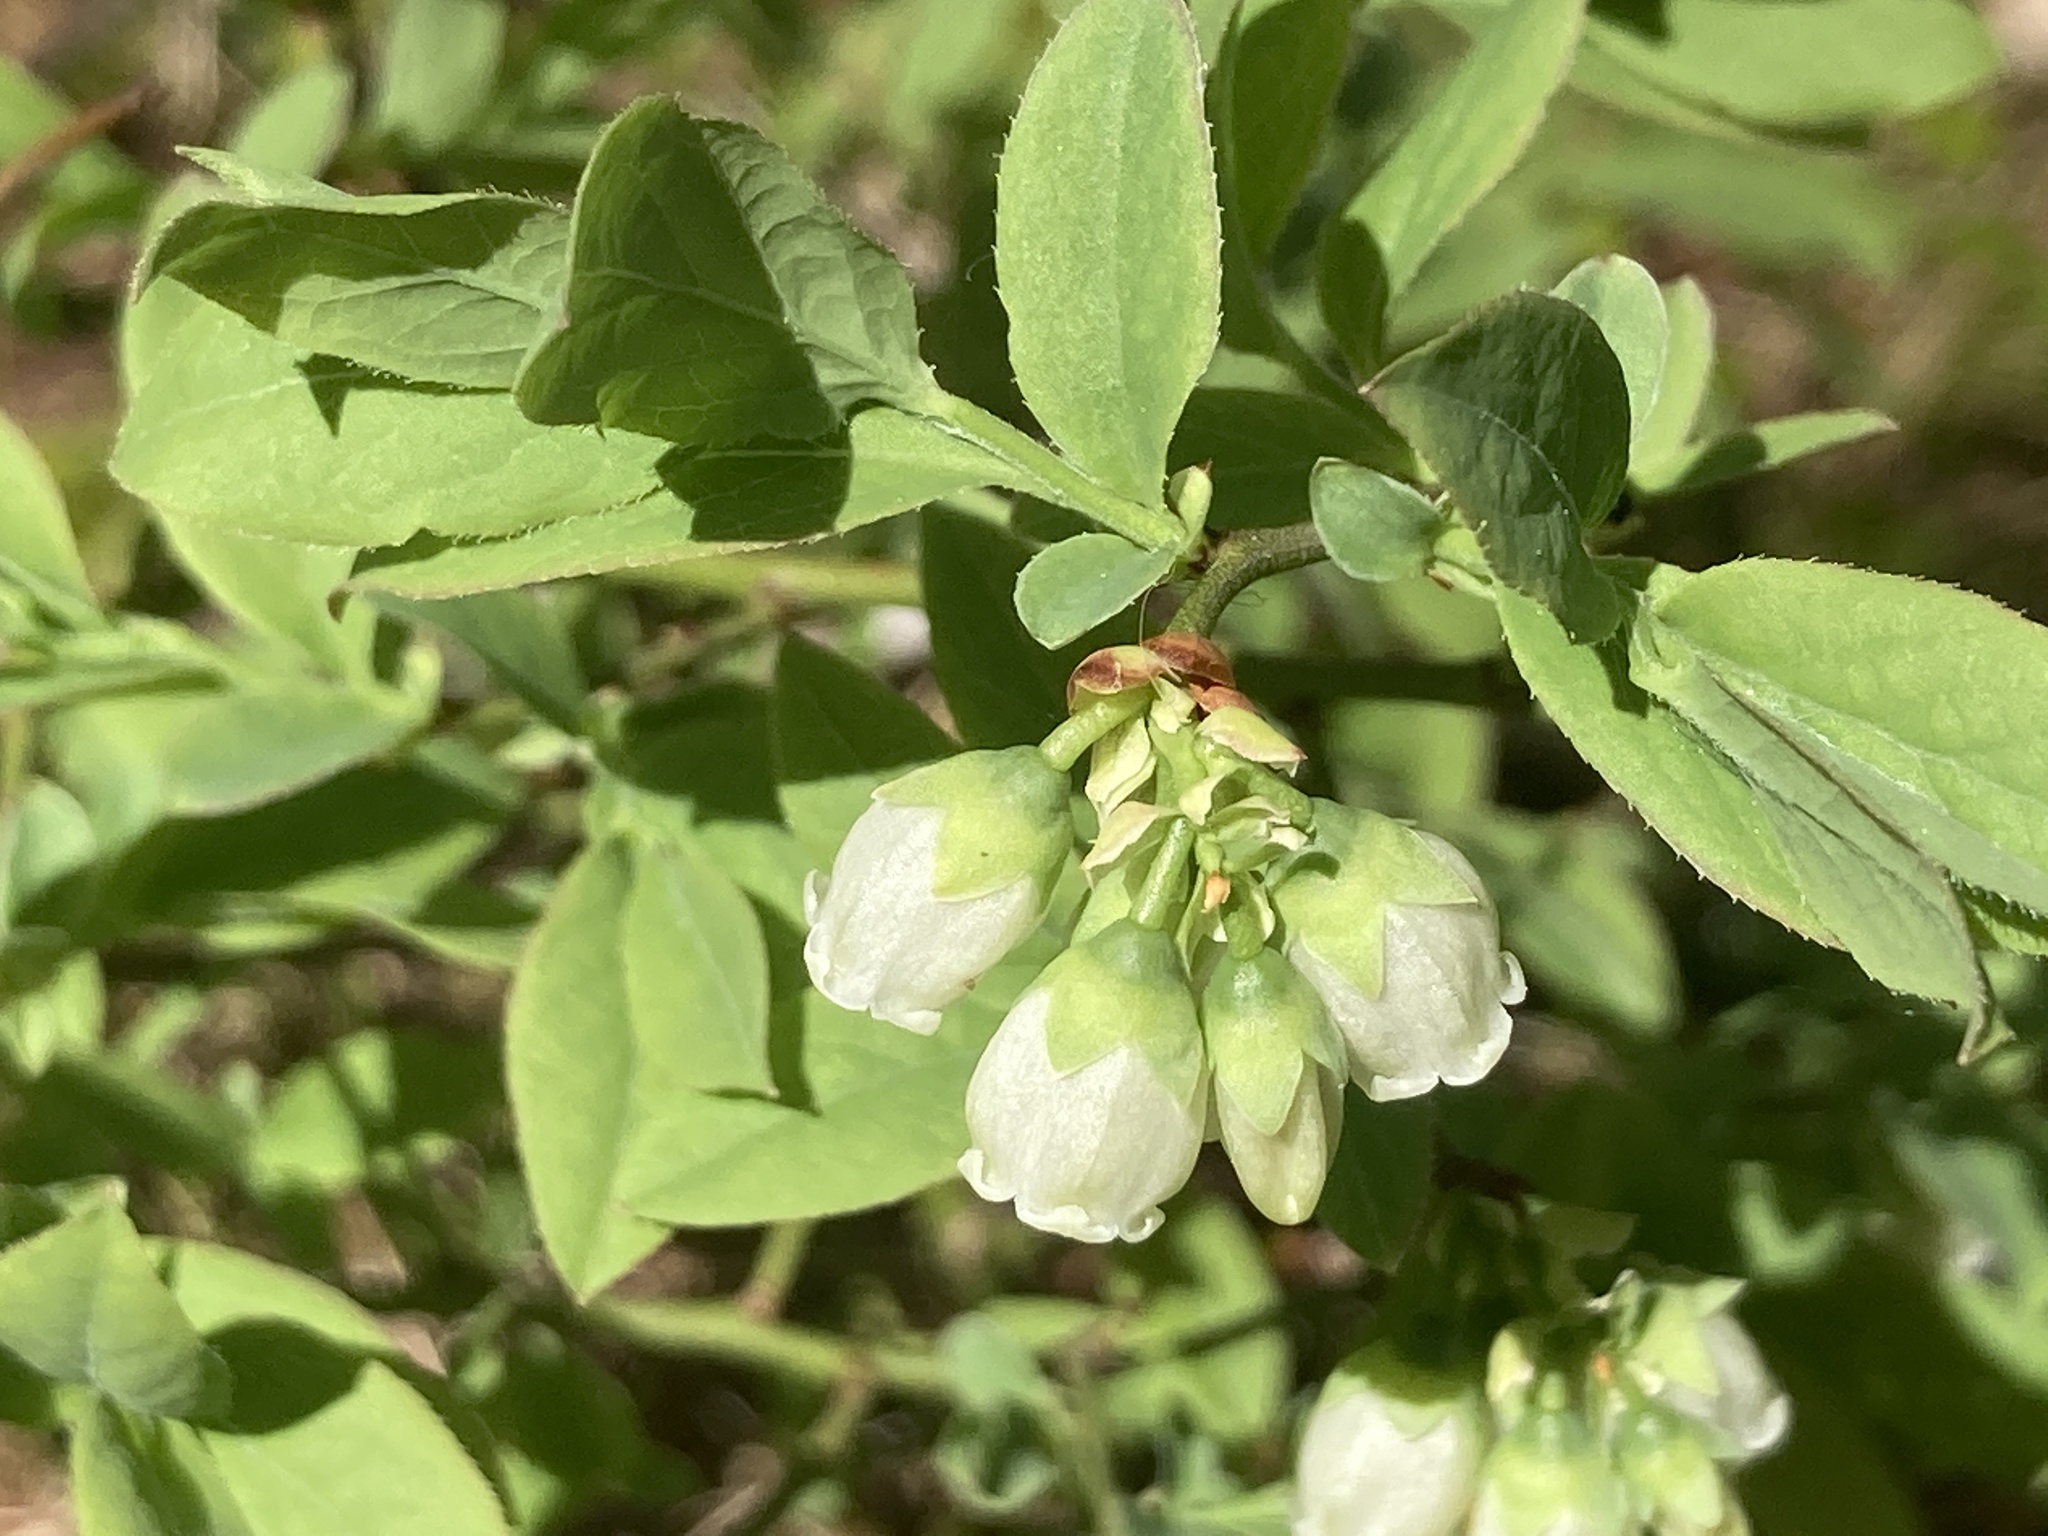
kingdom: Plantae
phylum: Tracheophyta
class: Magnoliopsida
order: Ericales
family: Ericaceae
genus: Vaccinium
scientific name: Vaccinium angustifolium
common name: Early lowbush blueberry
